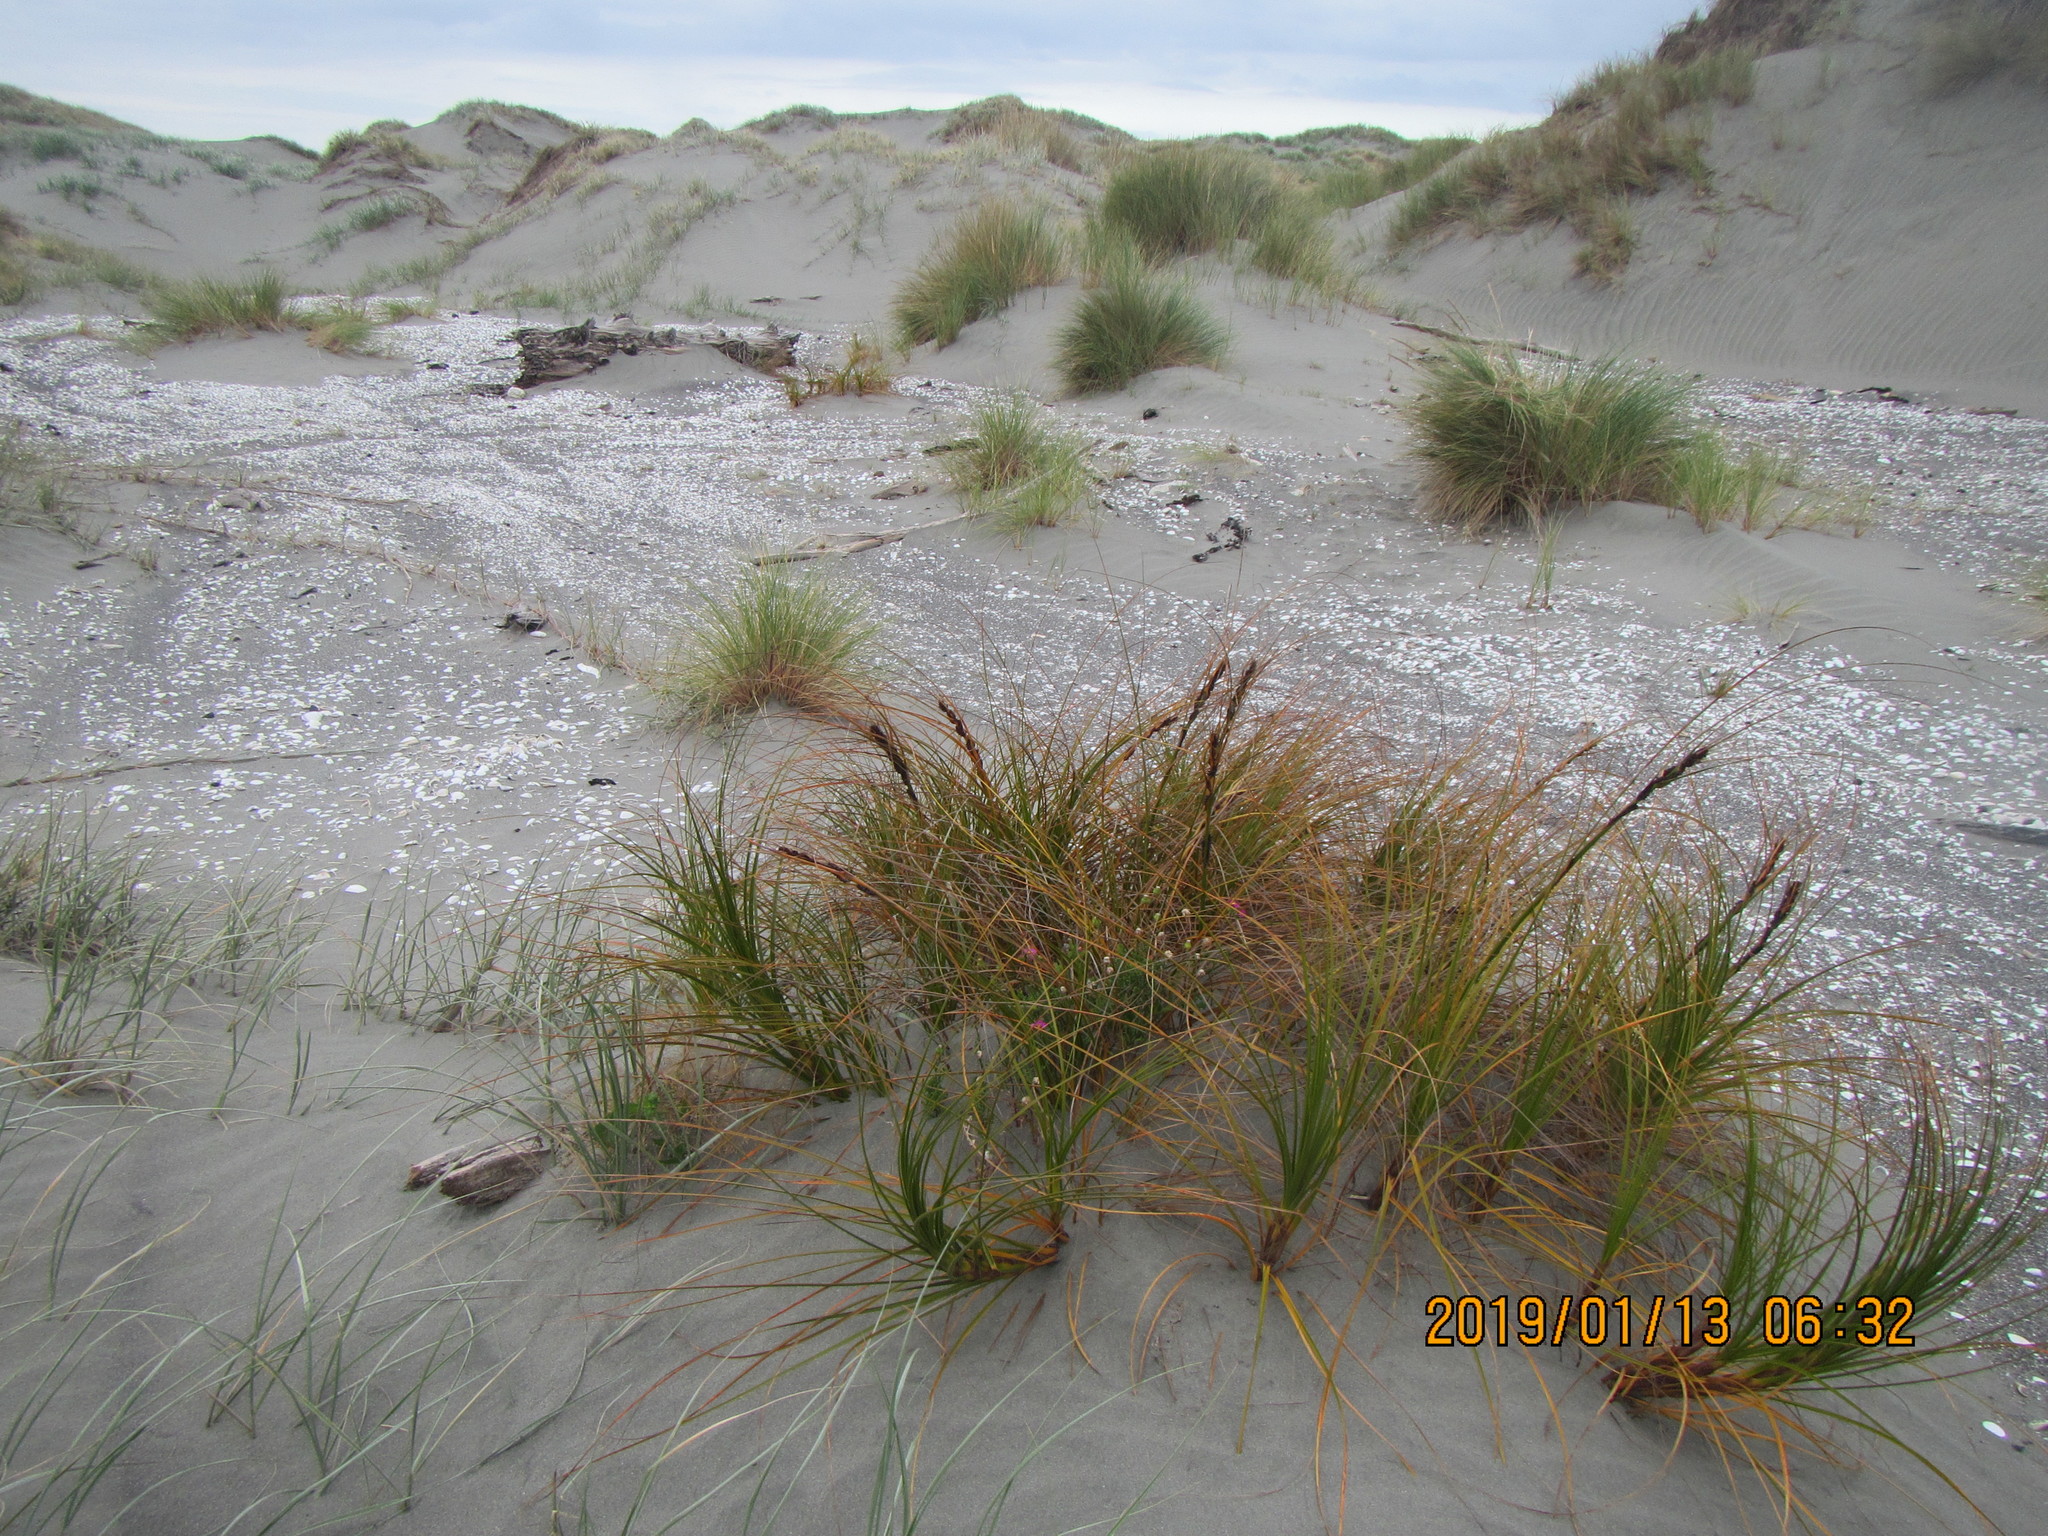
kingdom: Plantae
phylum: Tracheophyta
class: Liliopsida
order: Poales
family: Cyperaceae
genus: Ficinia
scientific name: Ficinia spiralis
